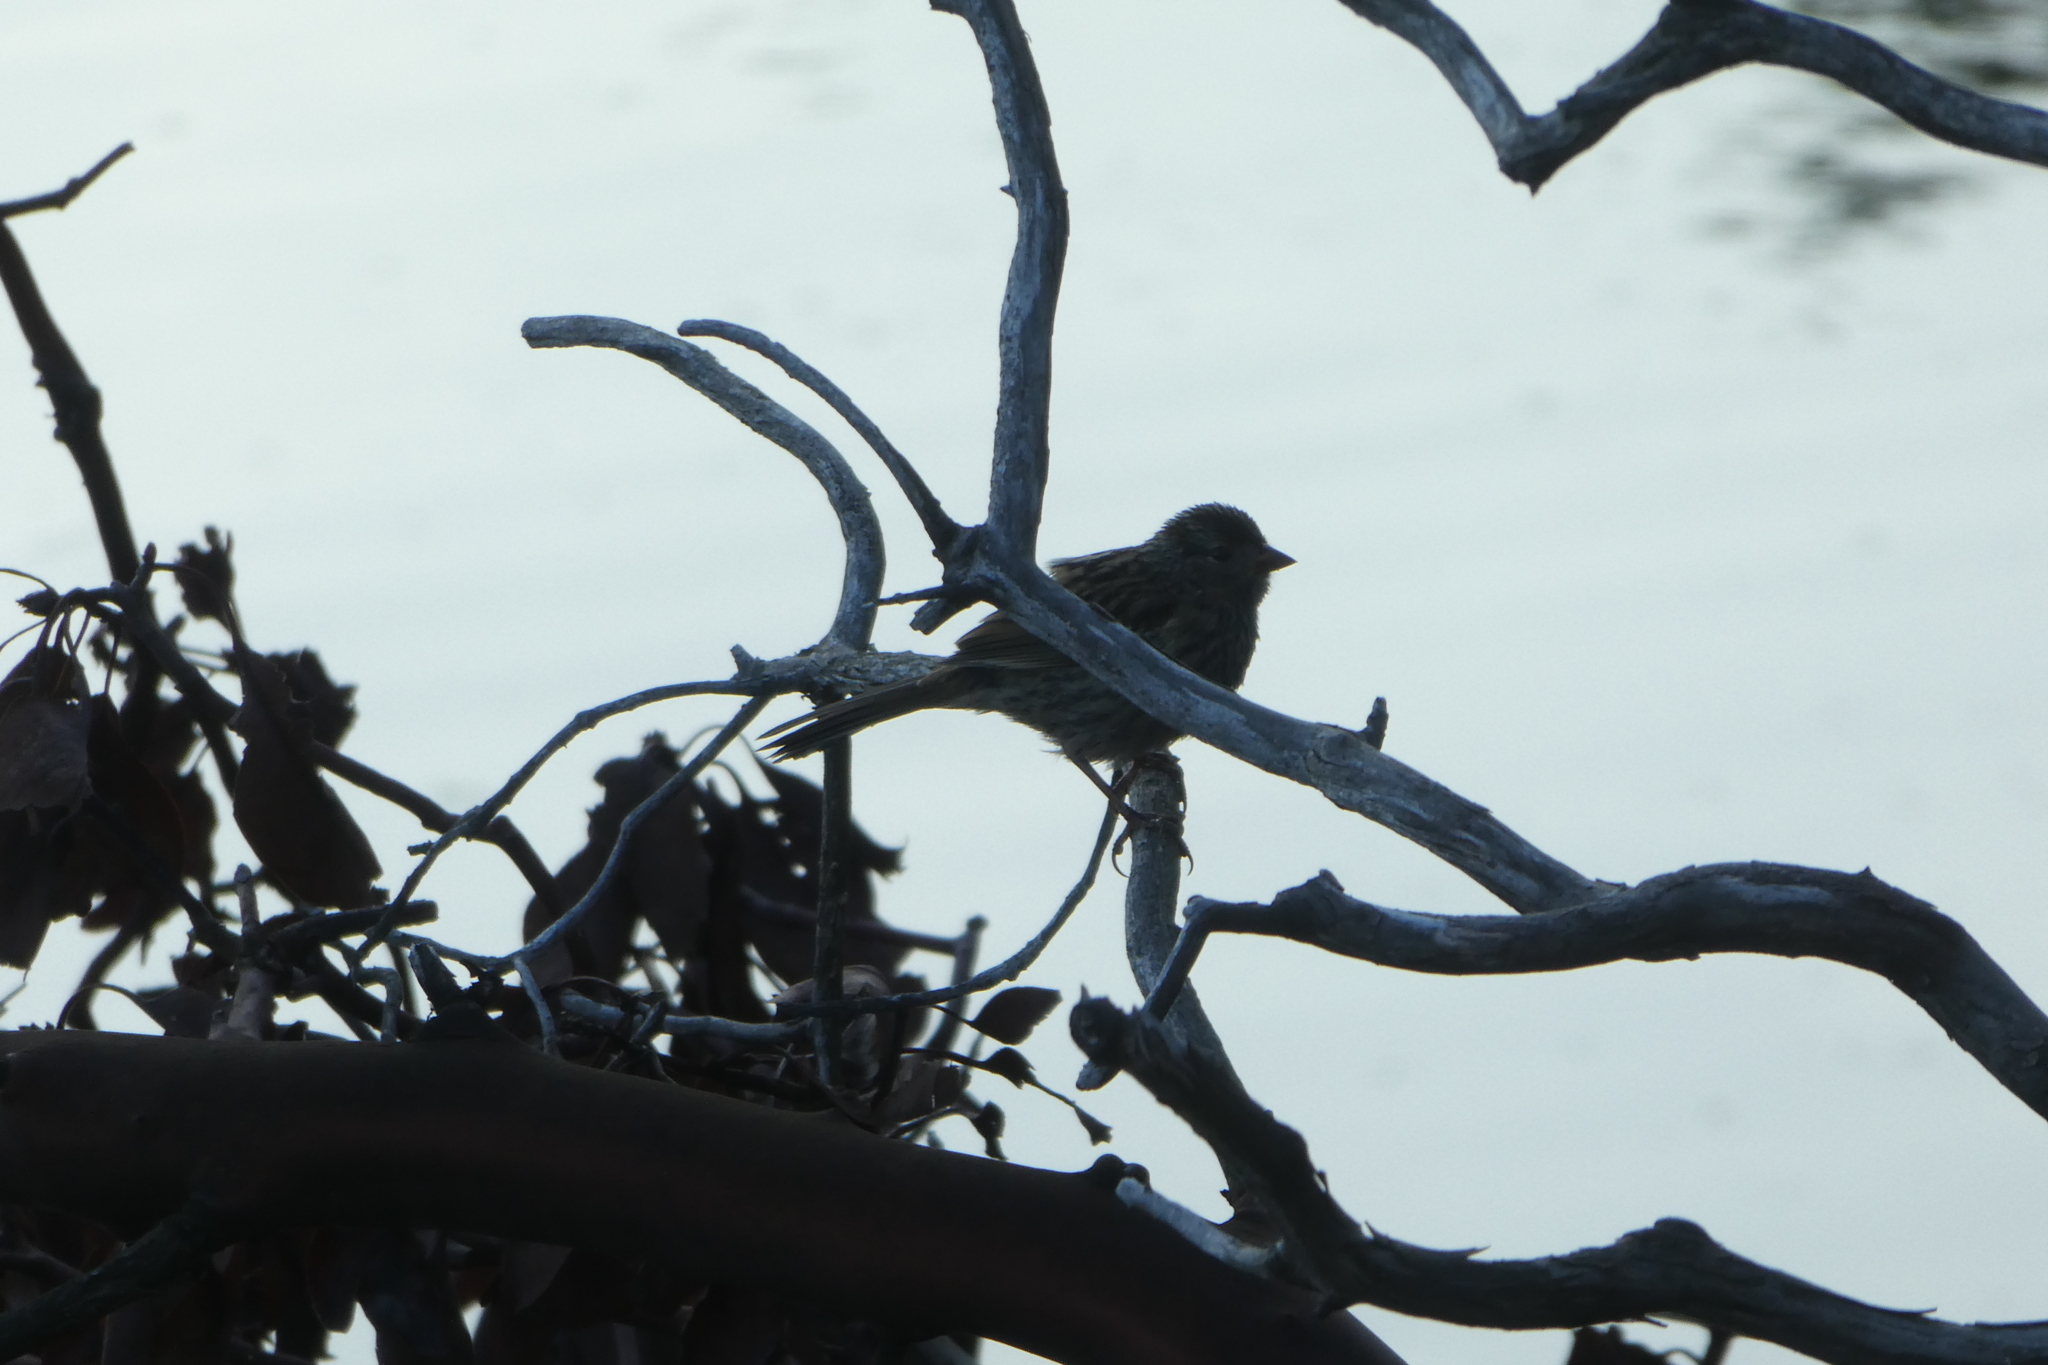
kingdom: Animalia
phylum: Chordata
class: Aves
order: Passeriformes
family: Passerellidae
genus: Zonotrichia
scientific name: Zonotrichia leucophrys
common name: White-crowned sparrow
